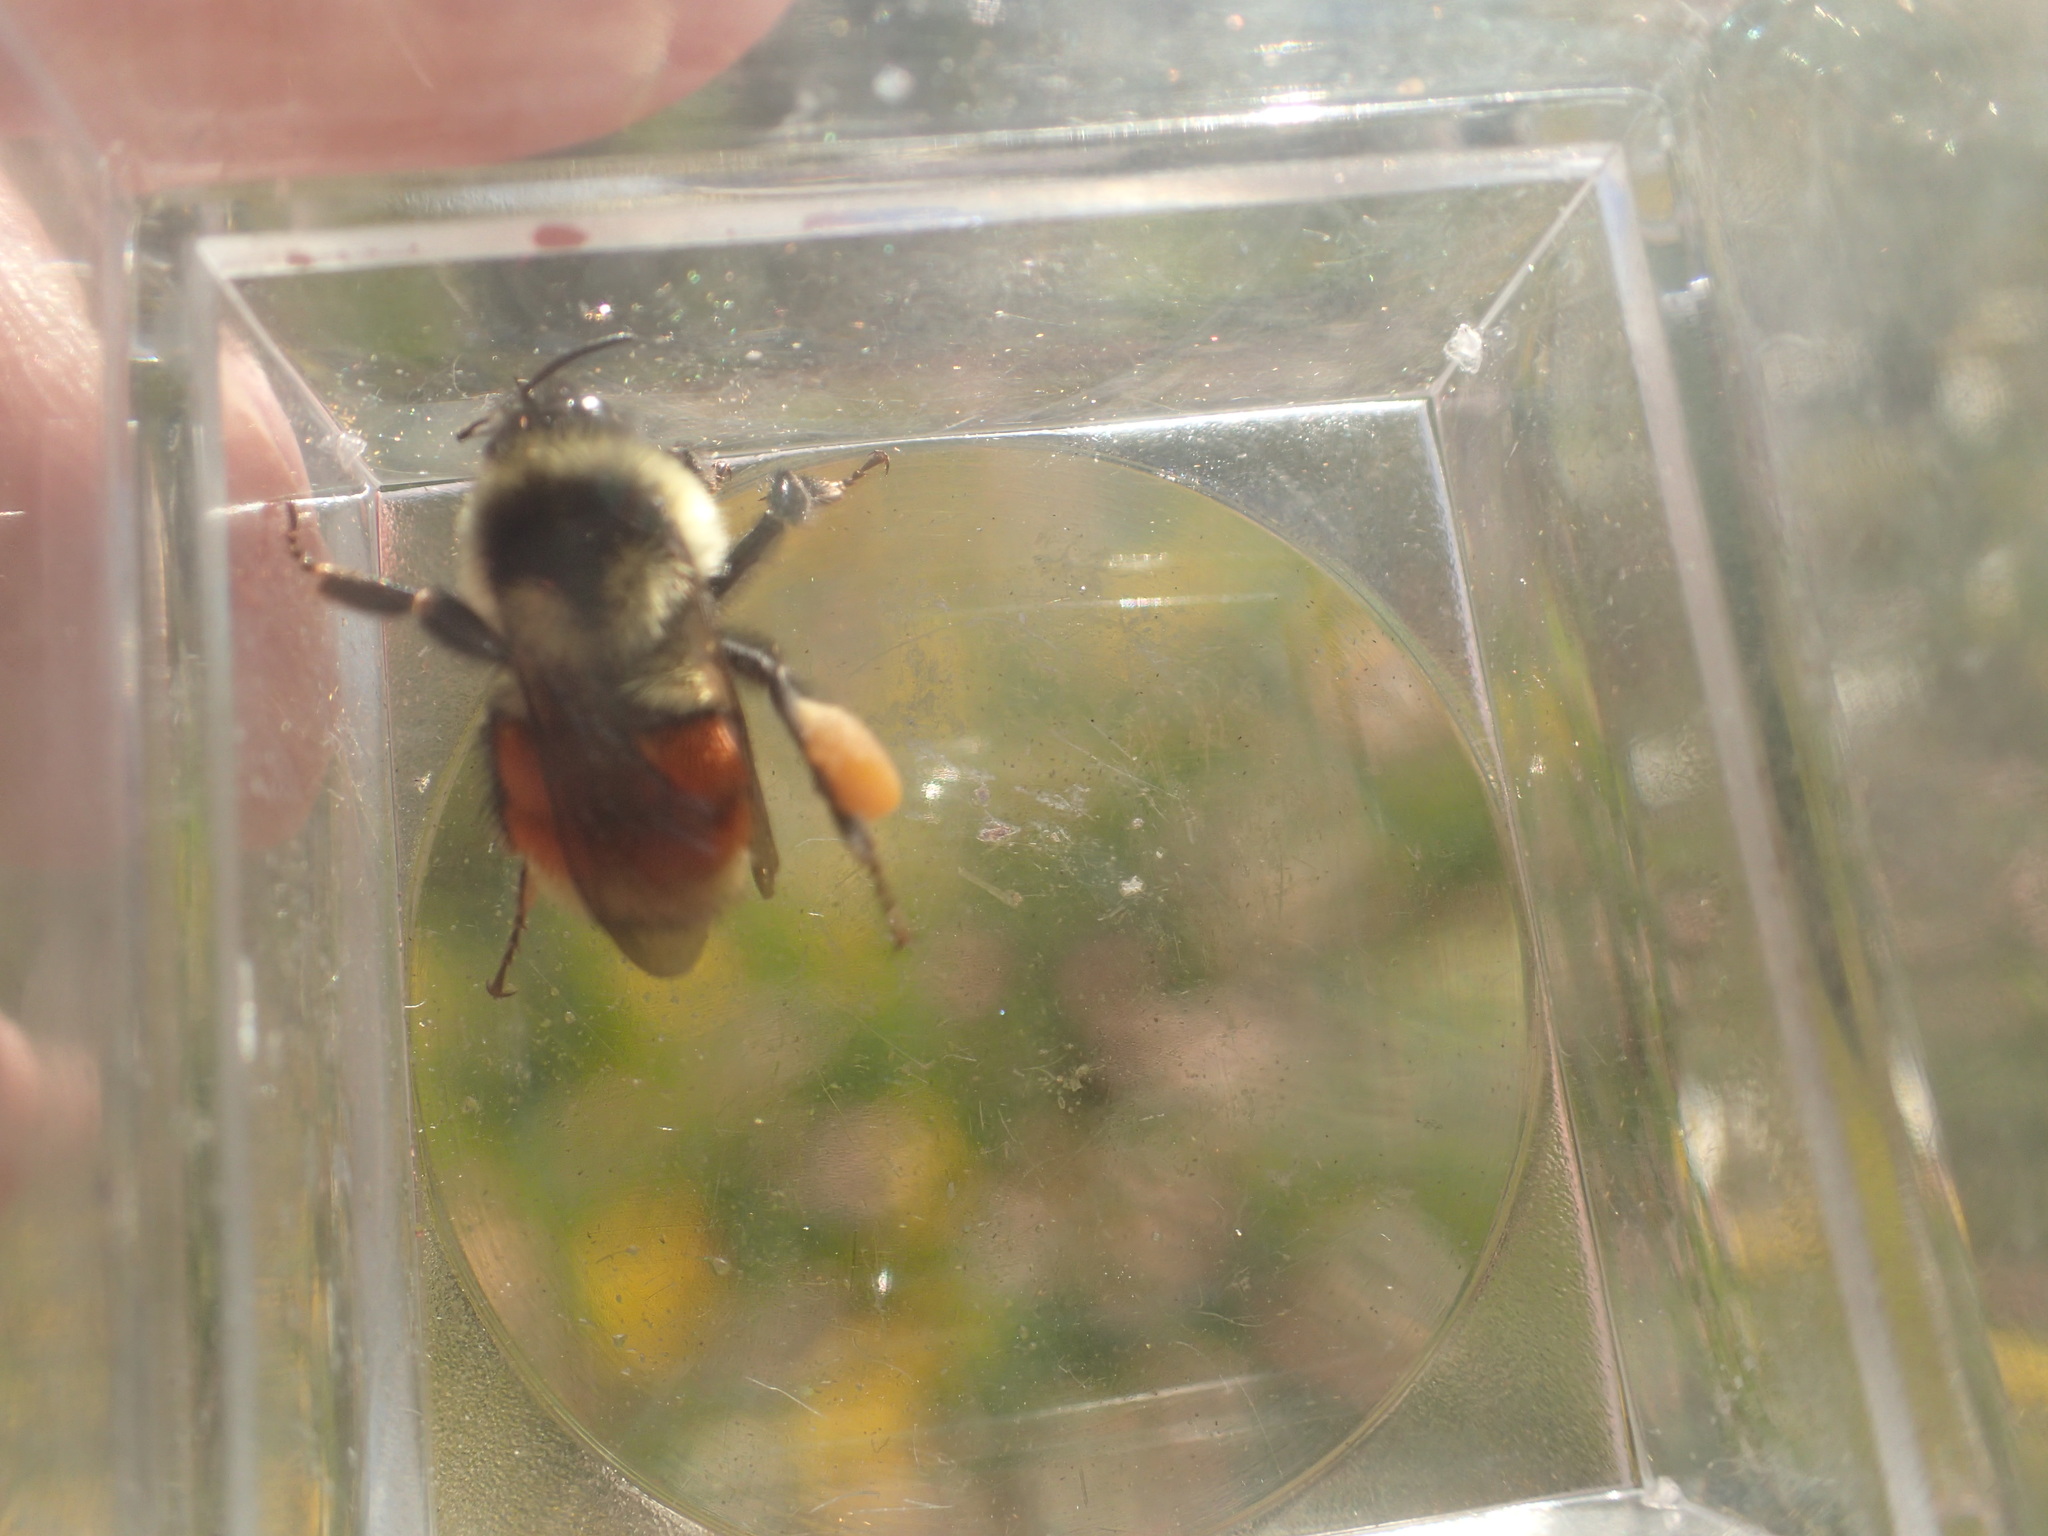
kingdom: Animalia
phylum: Arthropoda
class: Insecta
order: Hymenoptera
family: Apidae
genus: Bombus
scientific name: Bombus ternarius
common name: Tri-colored bumble bee
